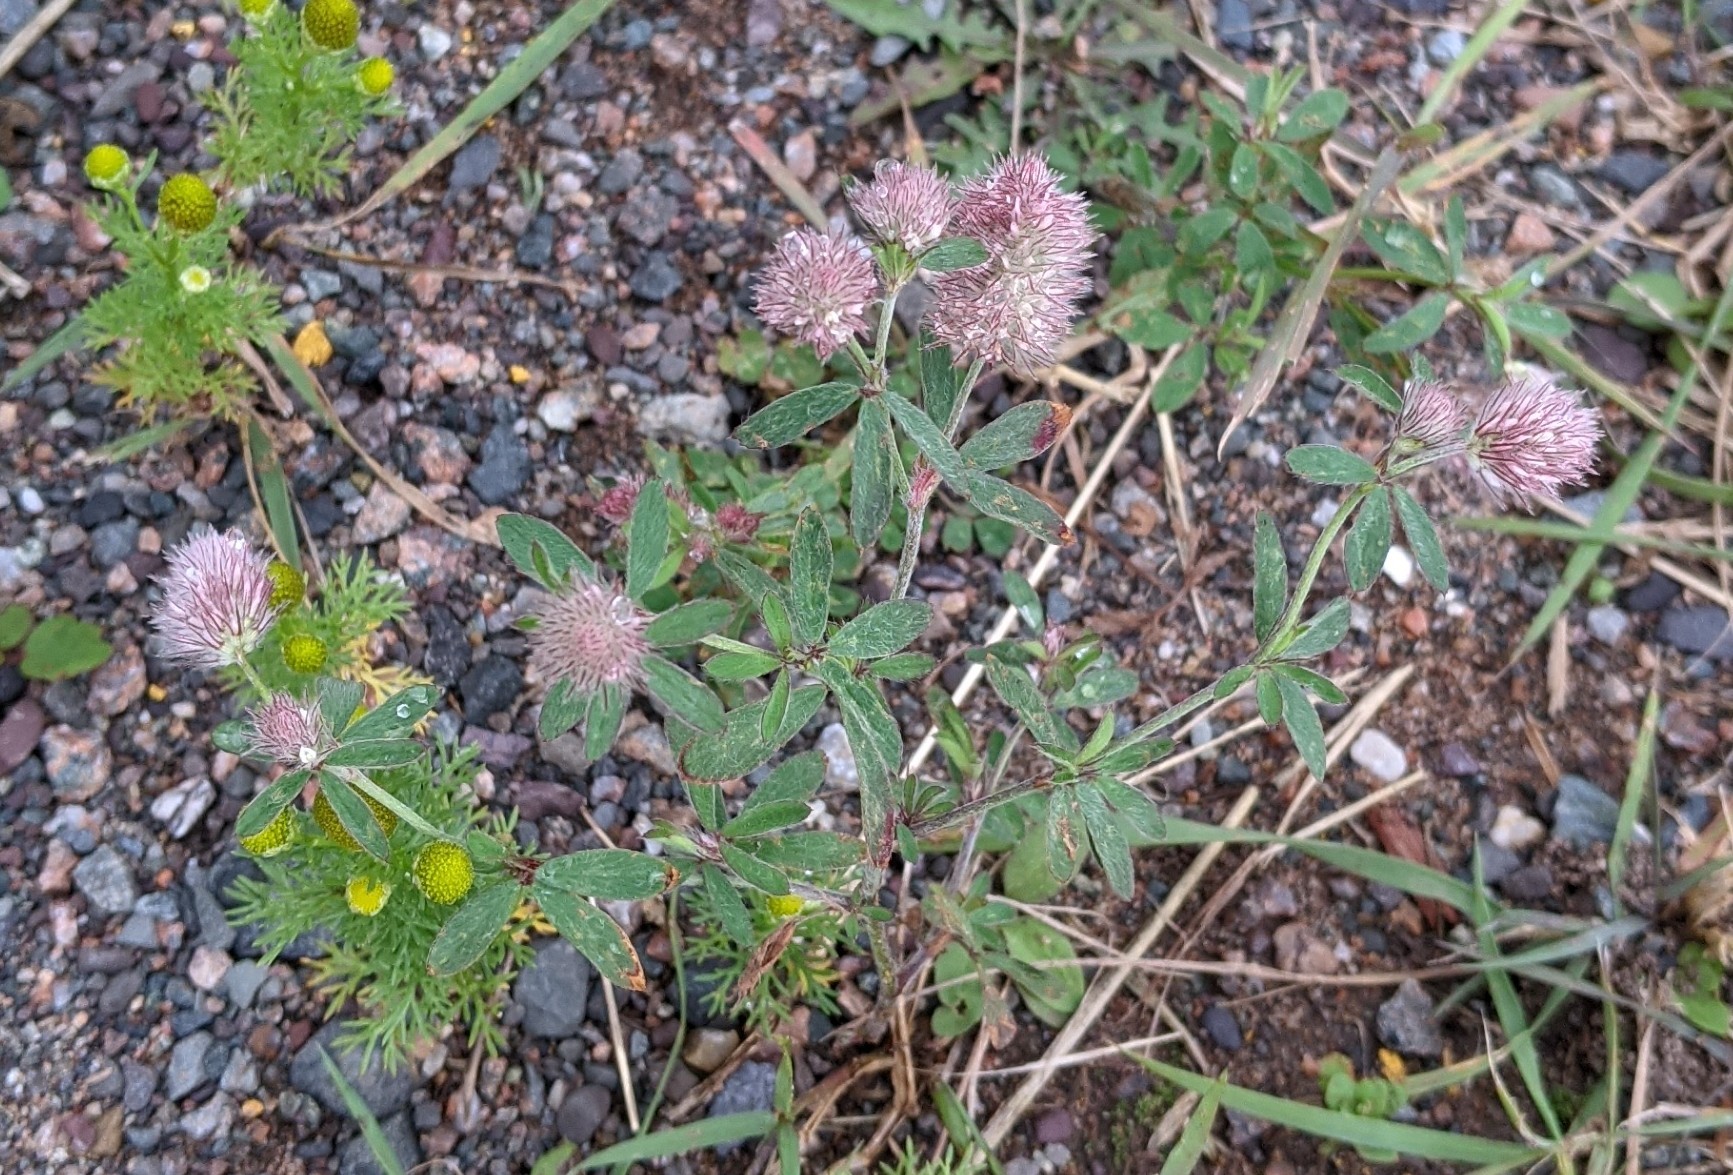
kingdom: Plantae
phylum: Tracheophyta
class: Magnoliopsida
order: Fabales
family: Fabaceae
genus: Trifolium
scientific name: Trifolium arvense
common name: Hare's-foot clover
